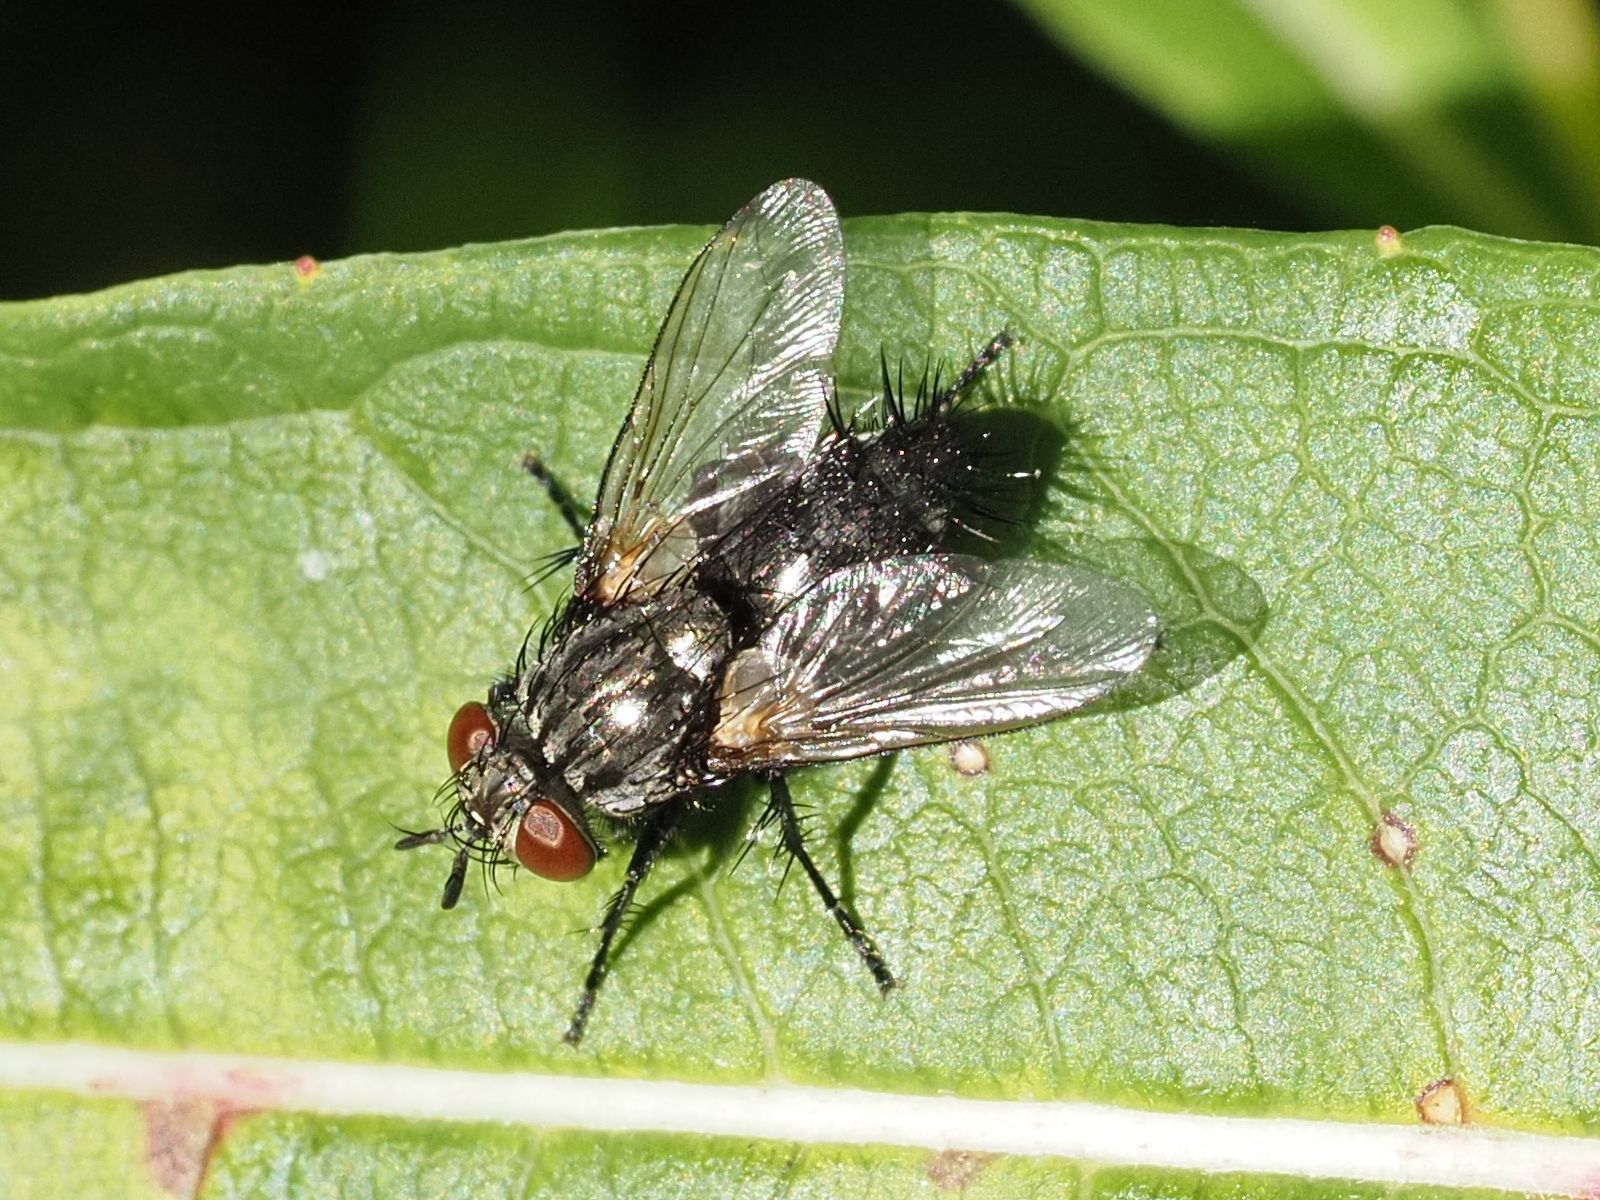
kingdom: Animalia
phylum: Arthropoda
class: Insecta
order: Diptera
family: Tachinidae
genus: Voria
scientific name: Voria ruralis
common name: Parasitic fly
